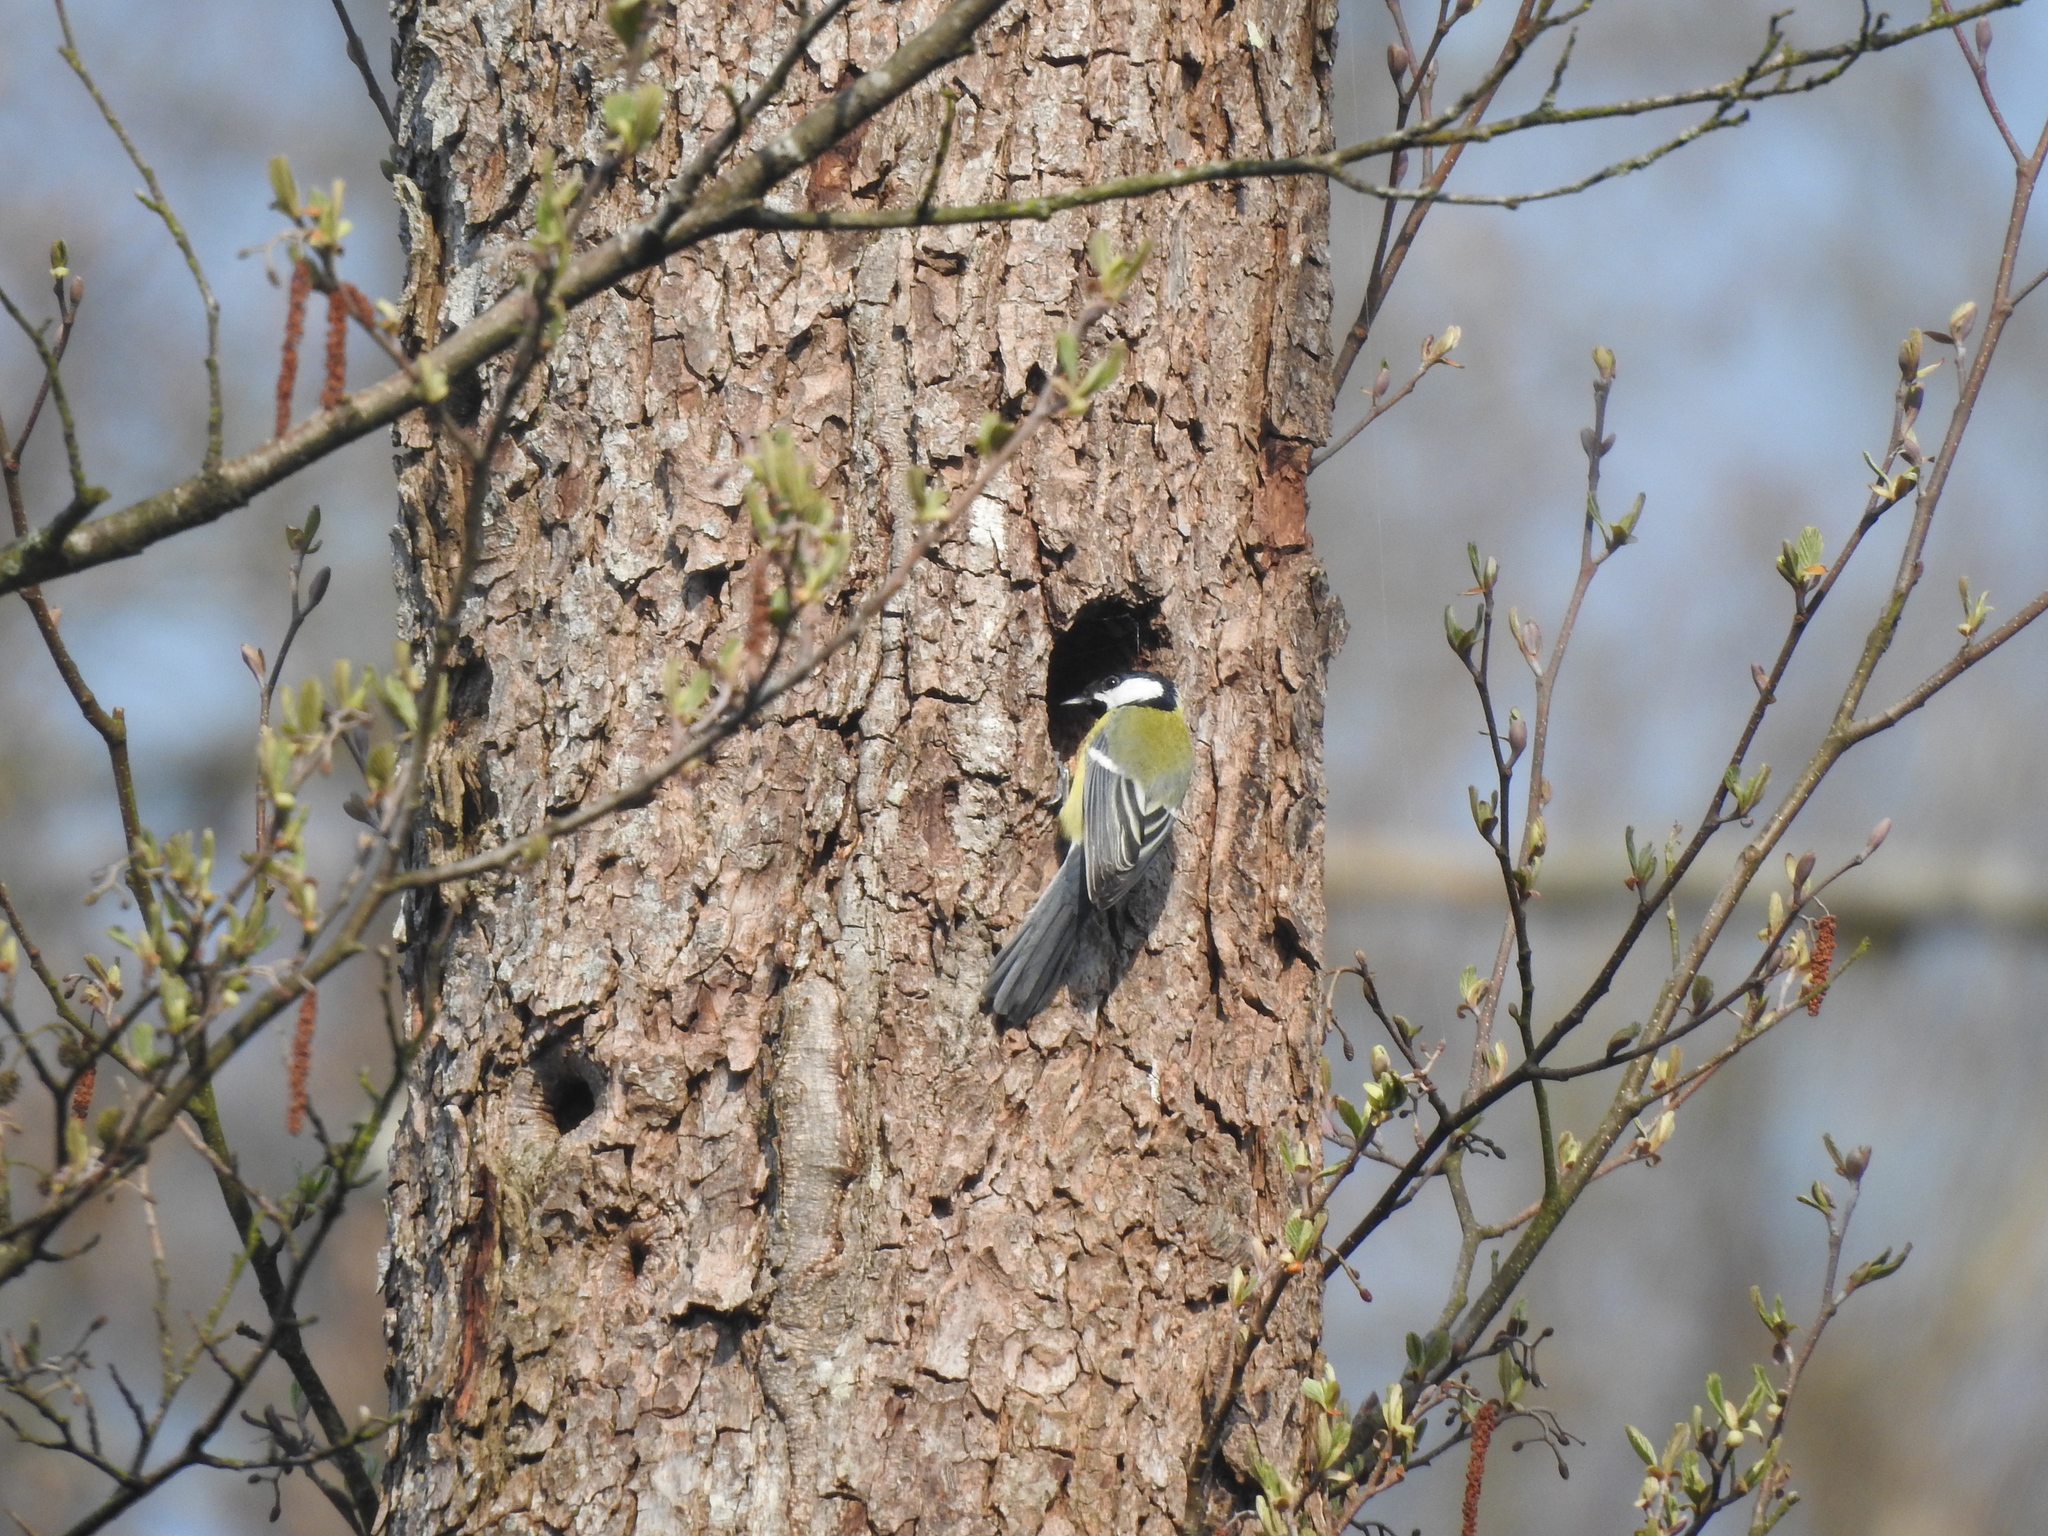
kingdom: Animalia
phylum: Chordata
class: Aves
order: Passeriformes
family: Paridae
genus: Parus
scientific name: Parus major
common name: Great tit
